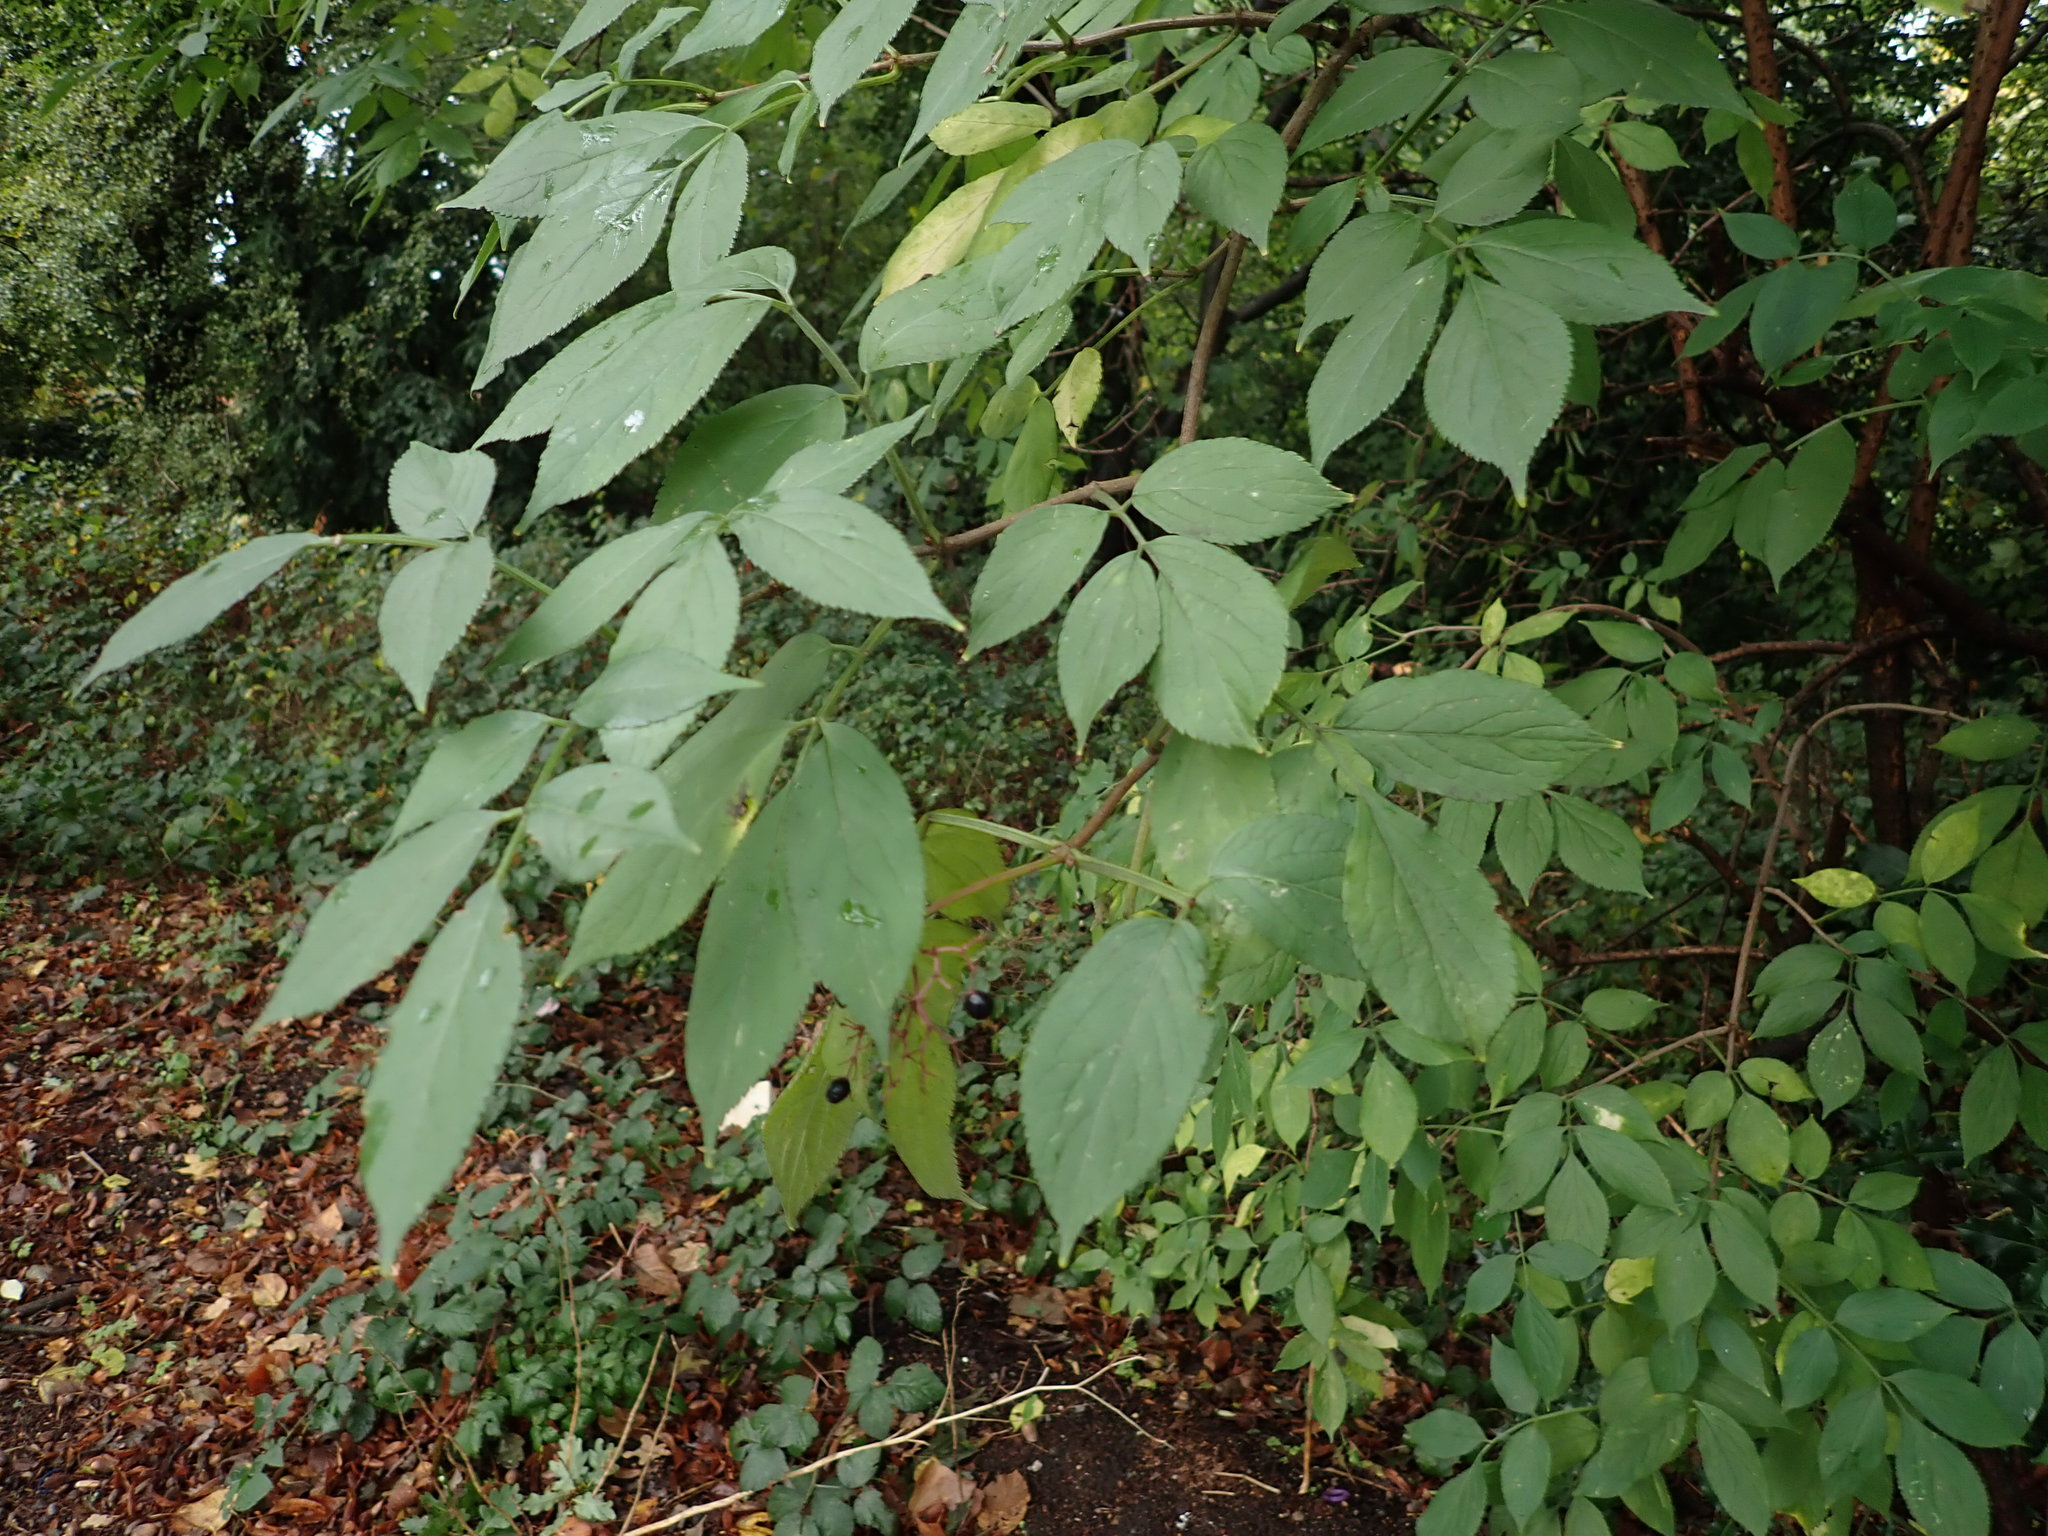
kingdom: Plantae
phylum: Tracheophyta
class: Magnoliopsida
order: Dipsacales
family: Viburnaceae
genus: Sambucus
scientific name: Sambucus nigra
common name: Elder
